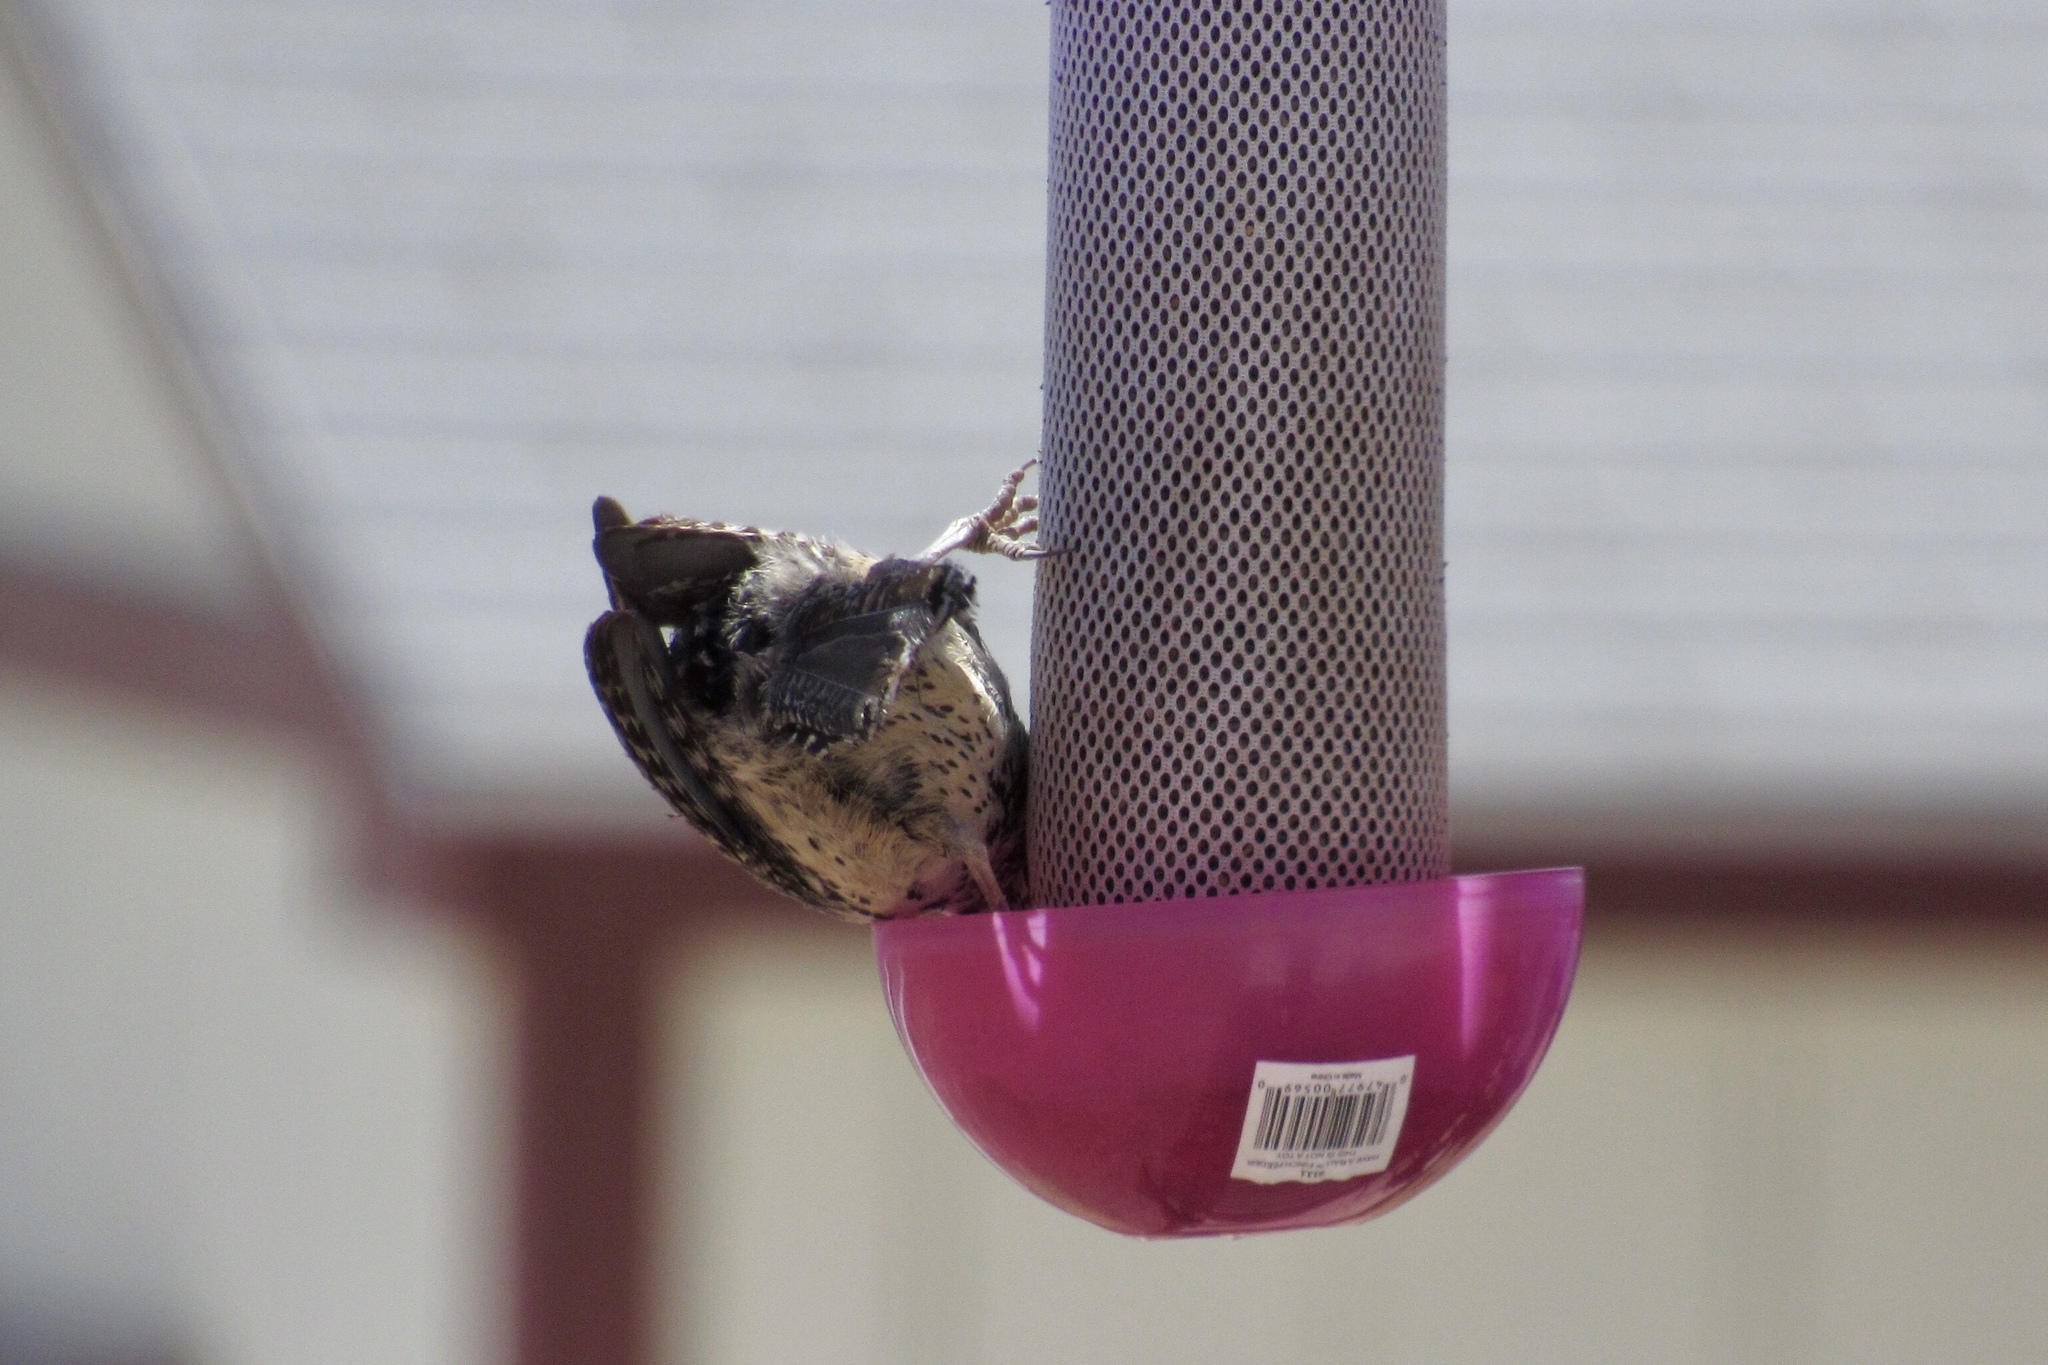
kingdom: Animalia
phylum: Chordata
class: Aves
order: Passeriformes
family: Troglodytidae
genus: Campylorhynchus
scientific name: Campylorhynchus brunneicapillus
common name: Cactus wren
